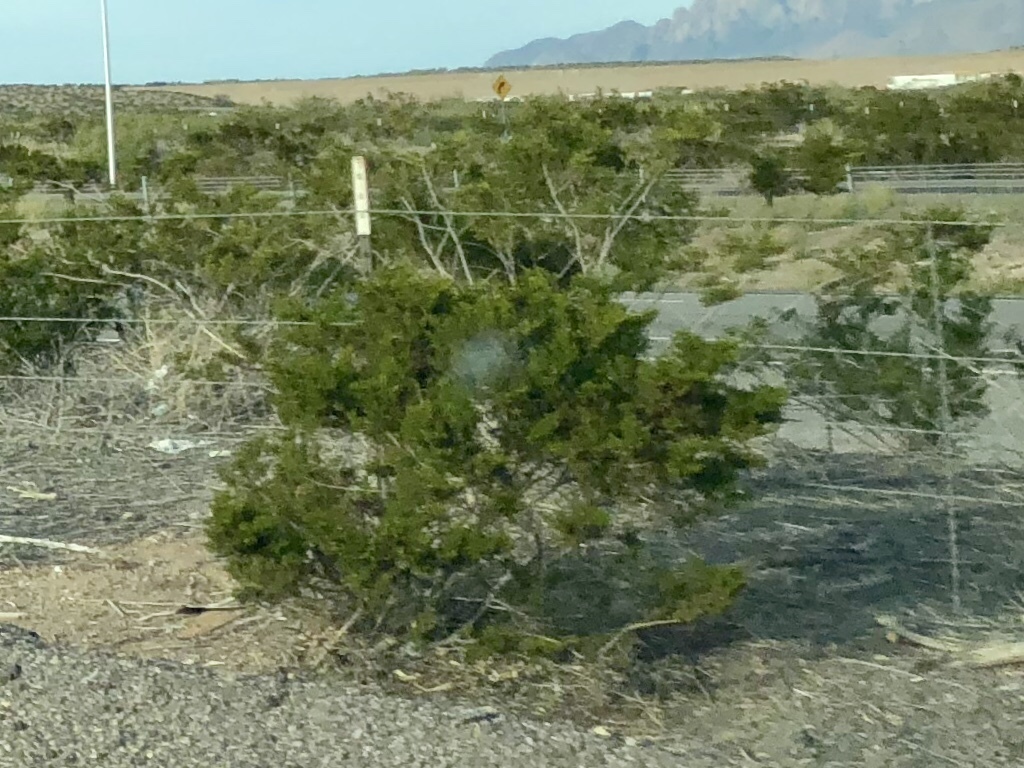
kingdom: Plantae
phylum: Tracheophyta
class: Magnoliopsida
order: Zygophyllales
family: Zygophyllaceae
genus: Larrea
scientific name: Larrea tridentata
